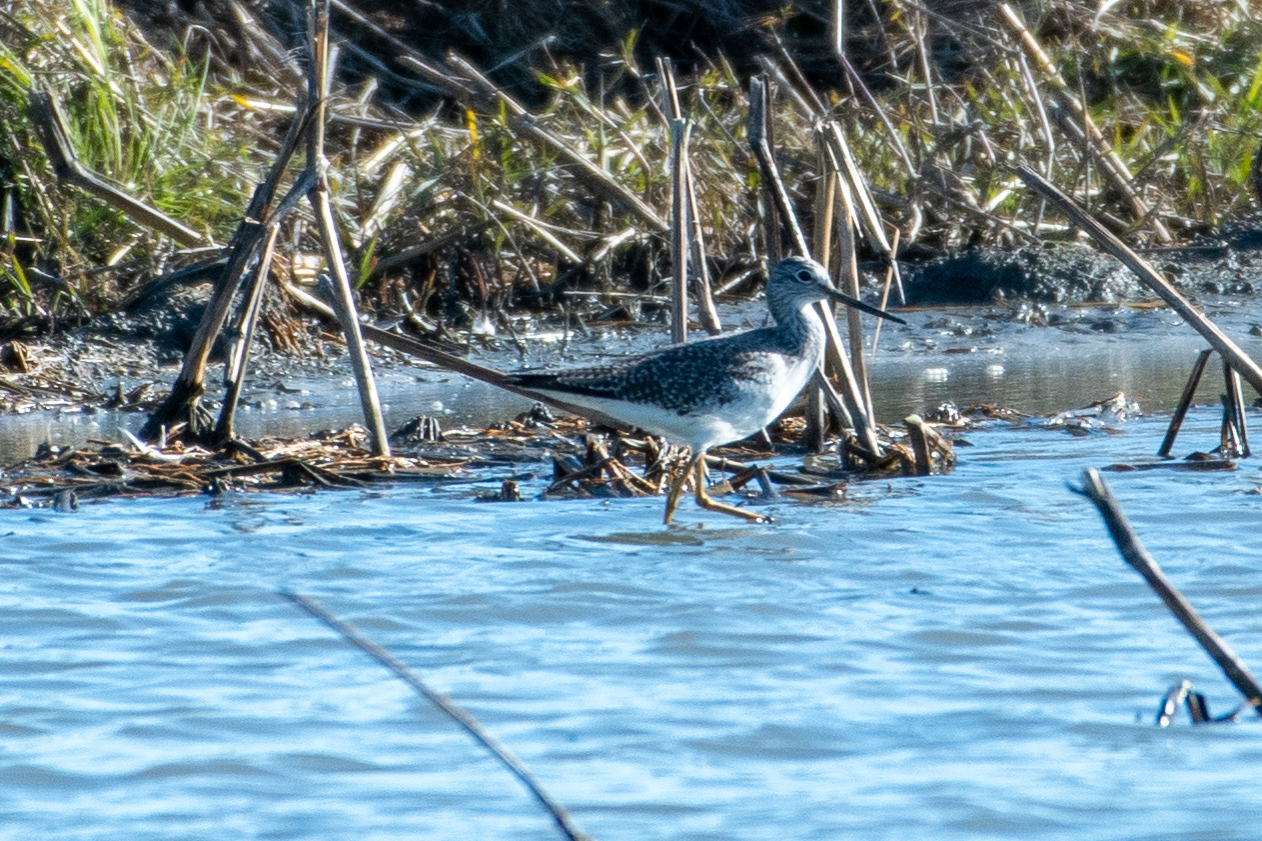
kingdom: Animalia
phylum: Chordata
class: Aves
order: Charadriiformes
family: Scolopacidae
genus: Tringa
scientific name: Tringa melanoleuca
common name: Greater yellowlegs
